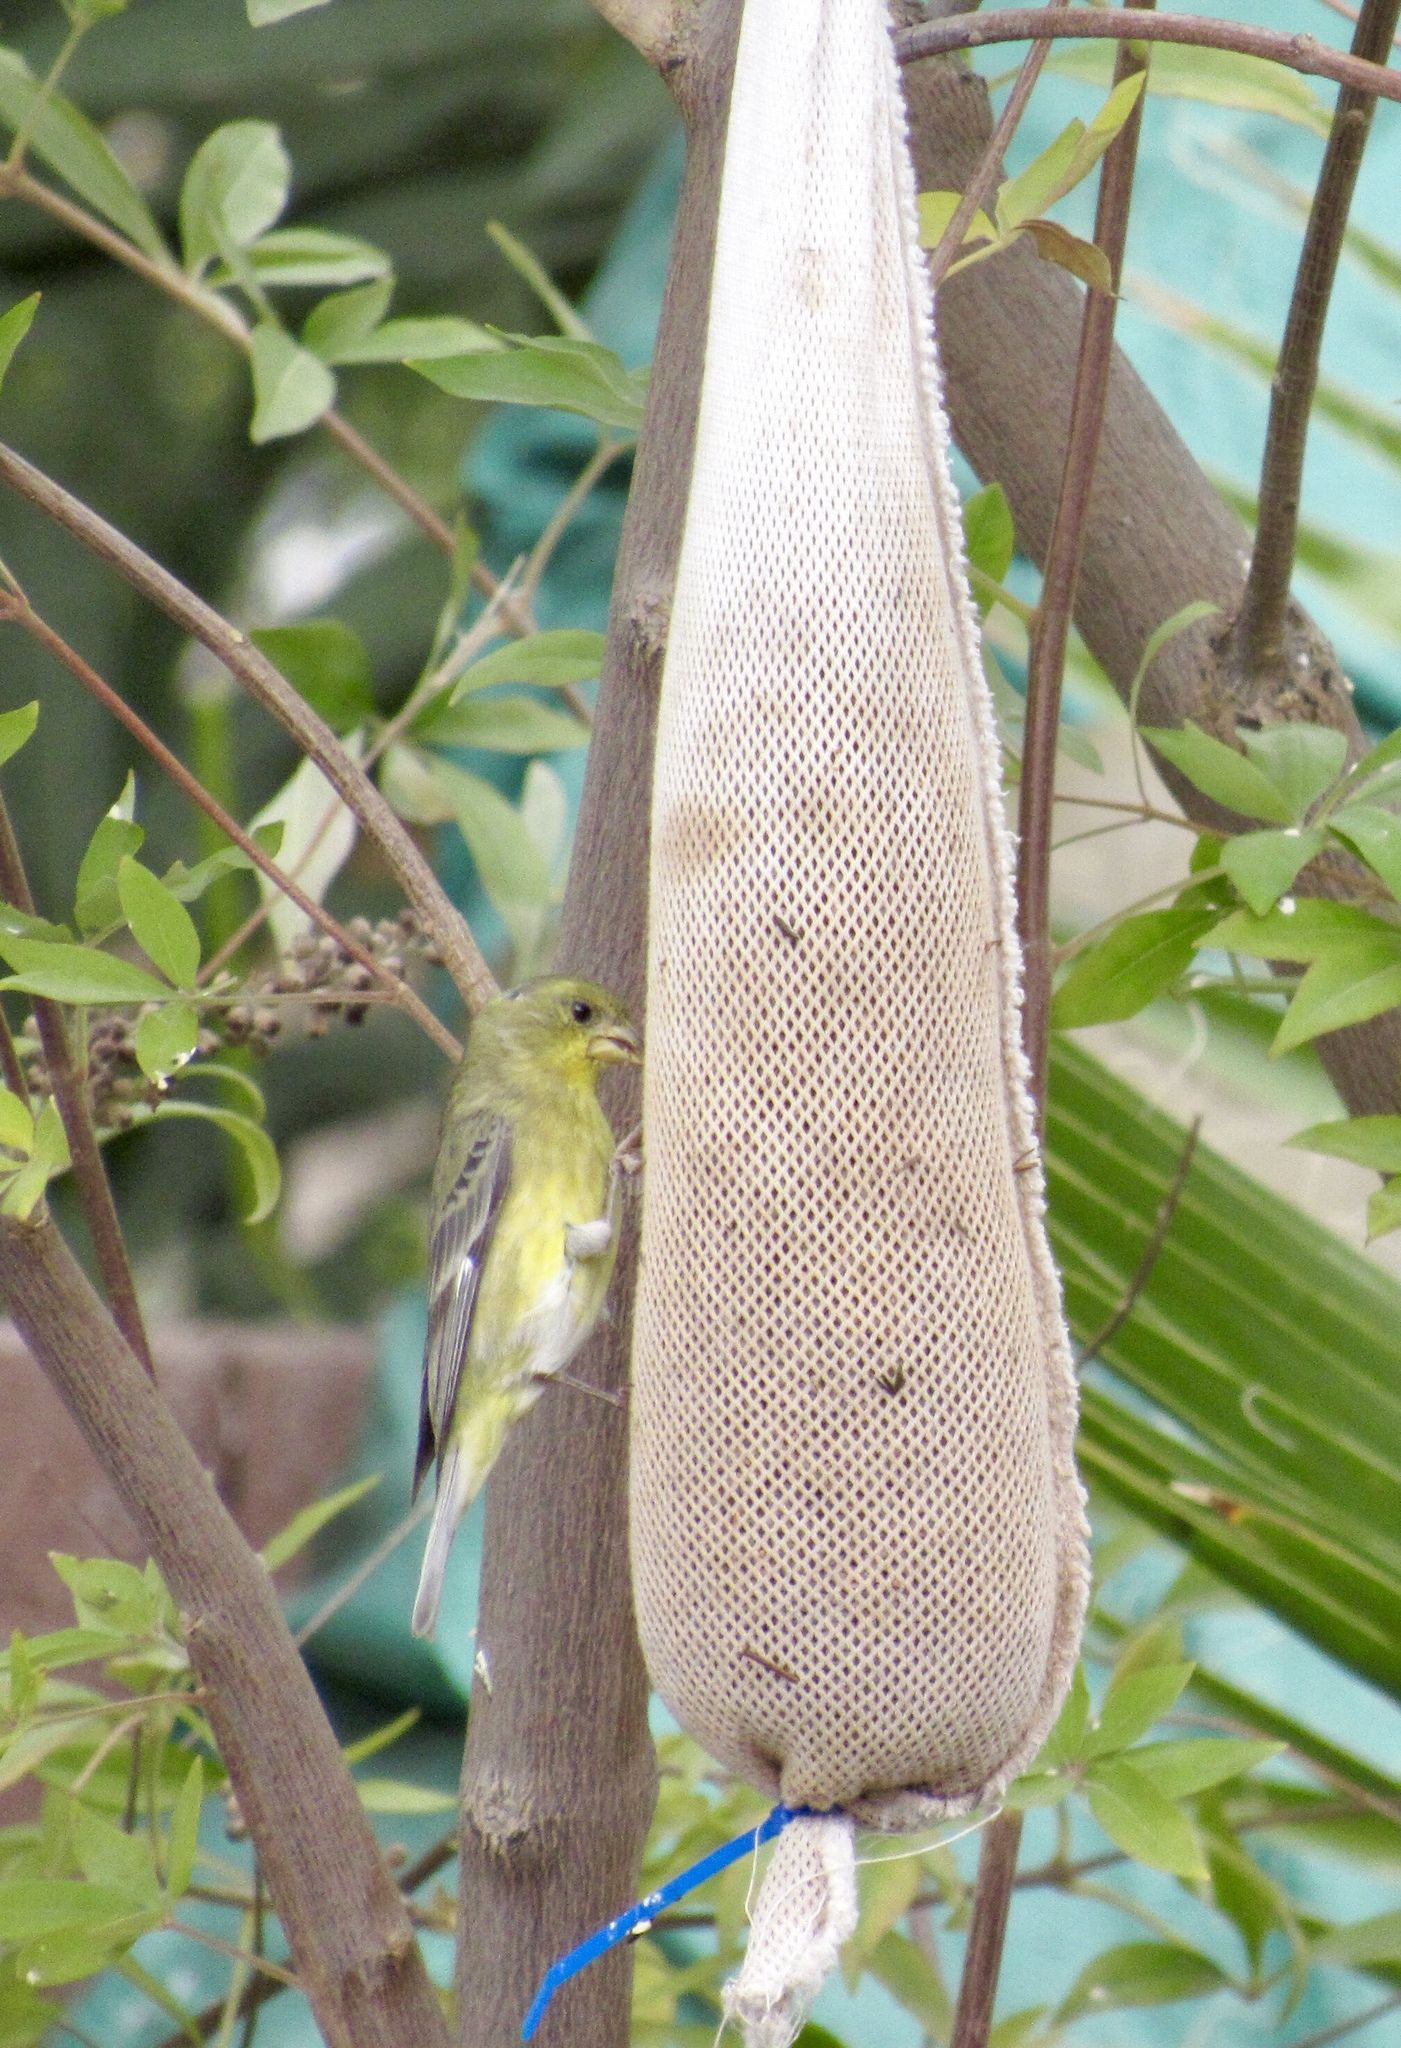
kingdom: Animalia
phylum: Chordata
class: Aves
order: Passeriformes
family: Fringillidae
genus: Spinus
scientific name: Spinus psaltria
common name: Lesser goldfinch
